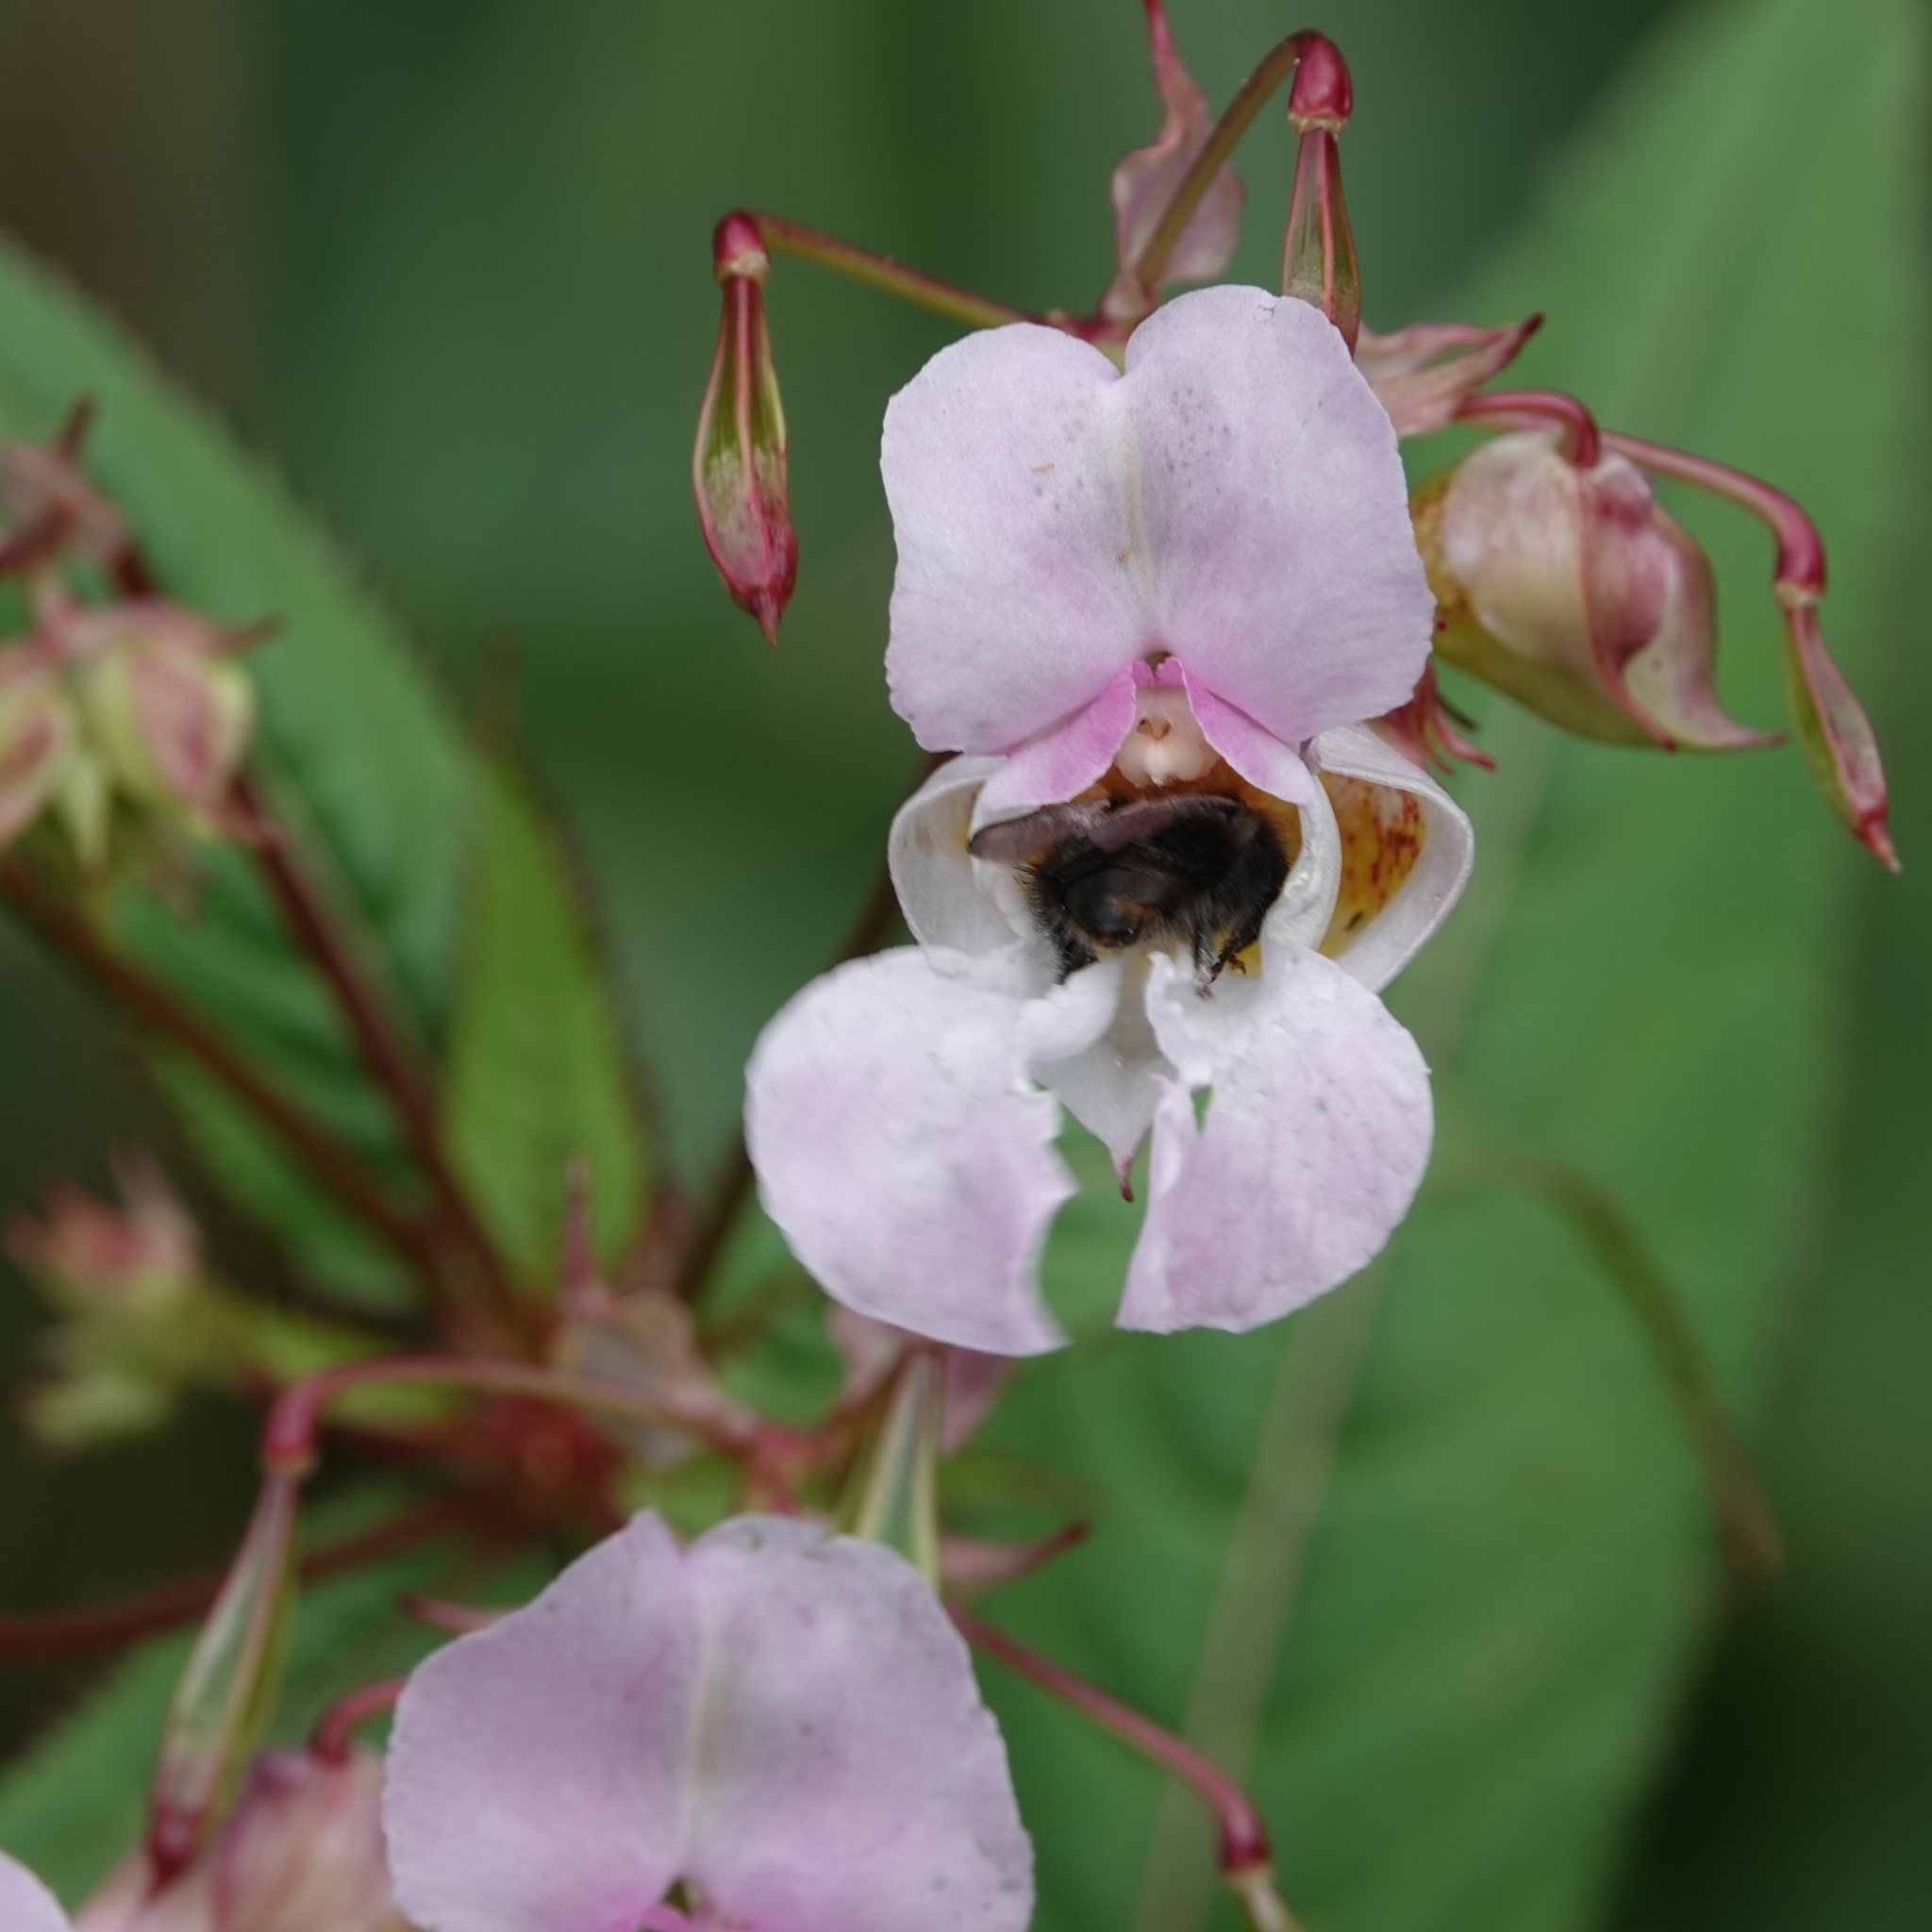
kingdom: Plantae
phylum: Tracheophyta
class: Magnoliopsida
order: Ericales
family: Balsaminaceae
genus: Impatiens
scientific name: Impatiens glandulifera
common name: Himalayan balsam
